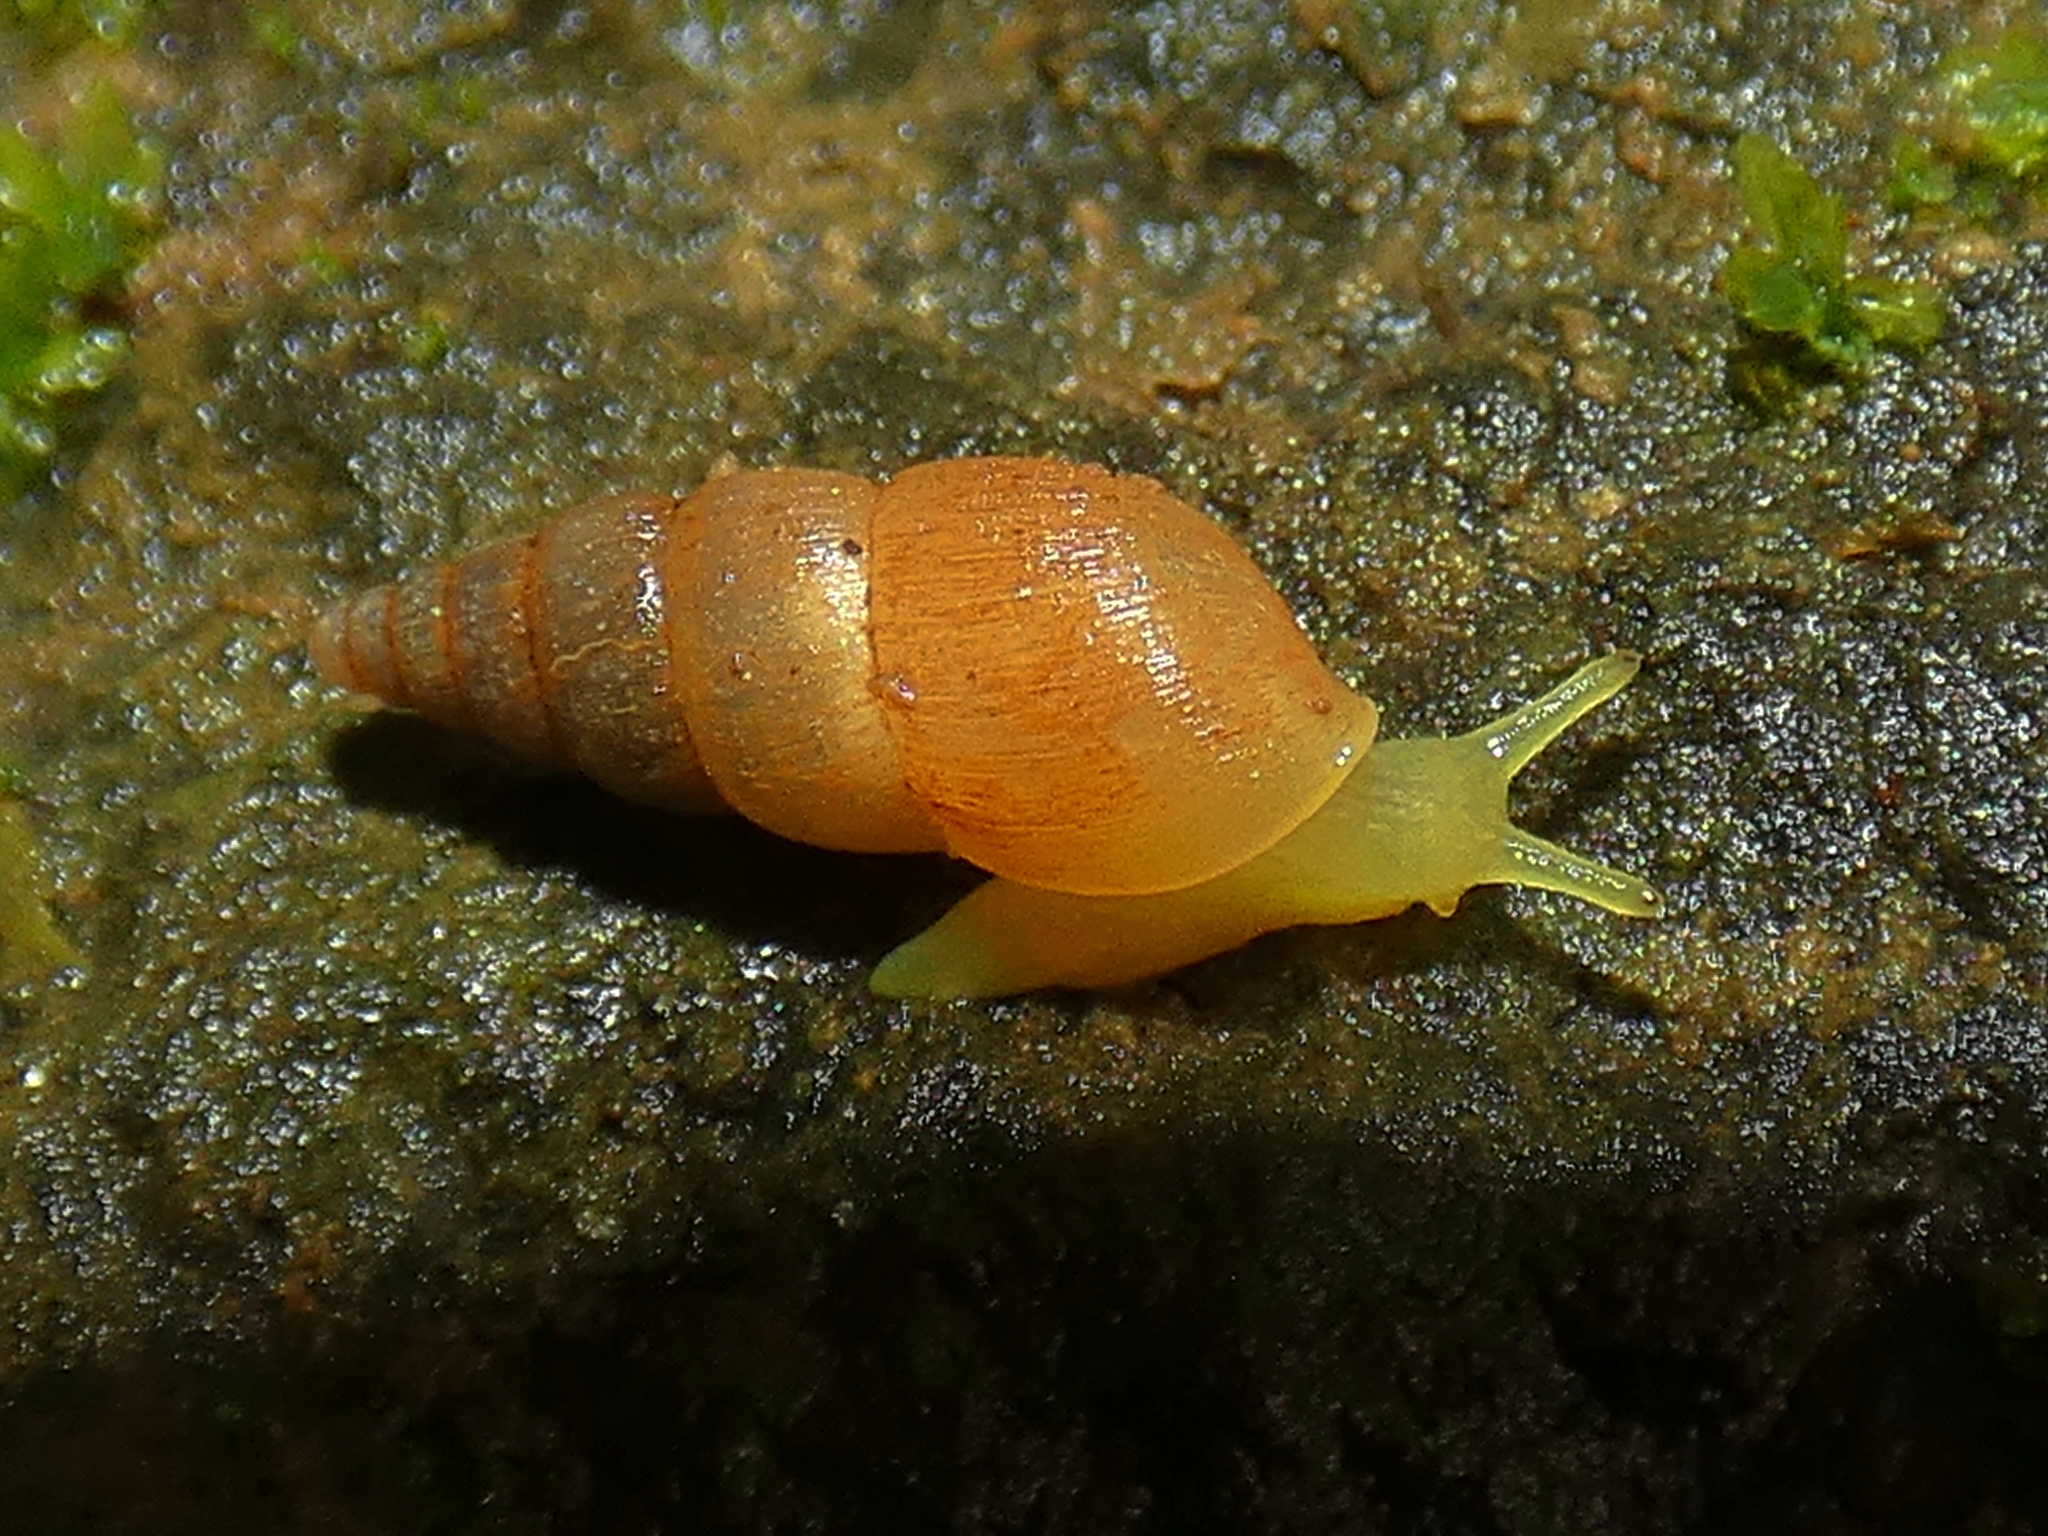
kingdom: Animalia
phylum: Mollusca
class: Gastropoda
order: Stylommatophora
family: Achatinidae
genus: Paropeas
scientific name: Paropeas achatinaceum
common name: Snail
